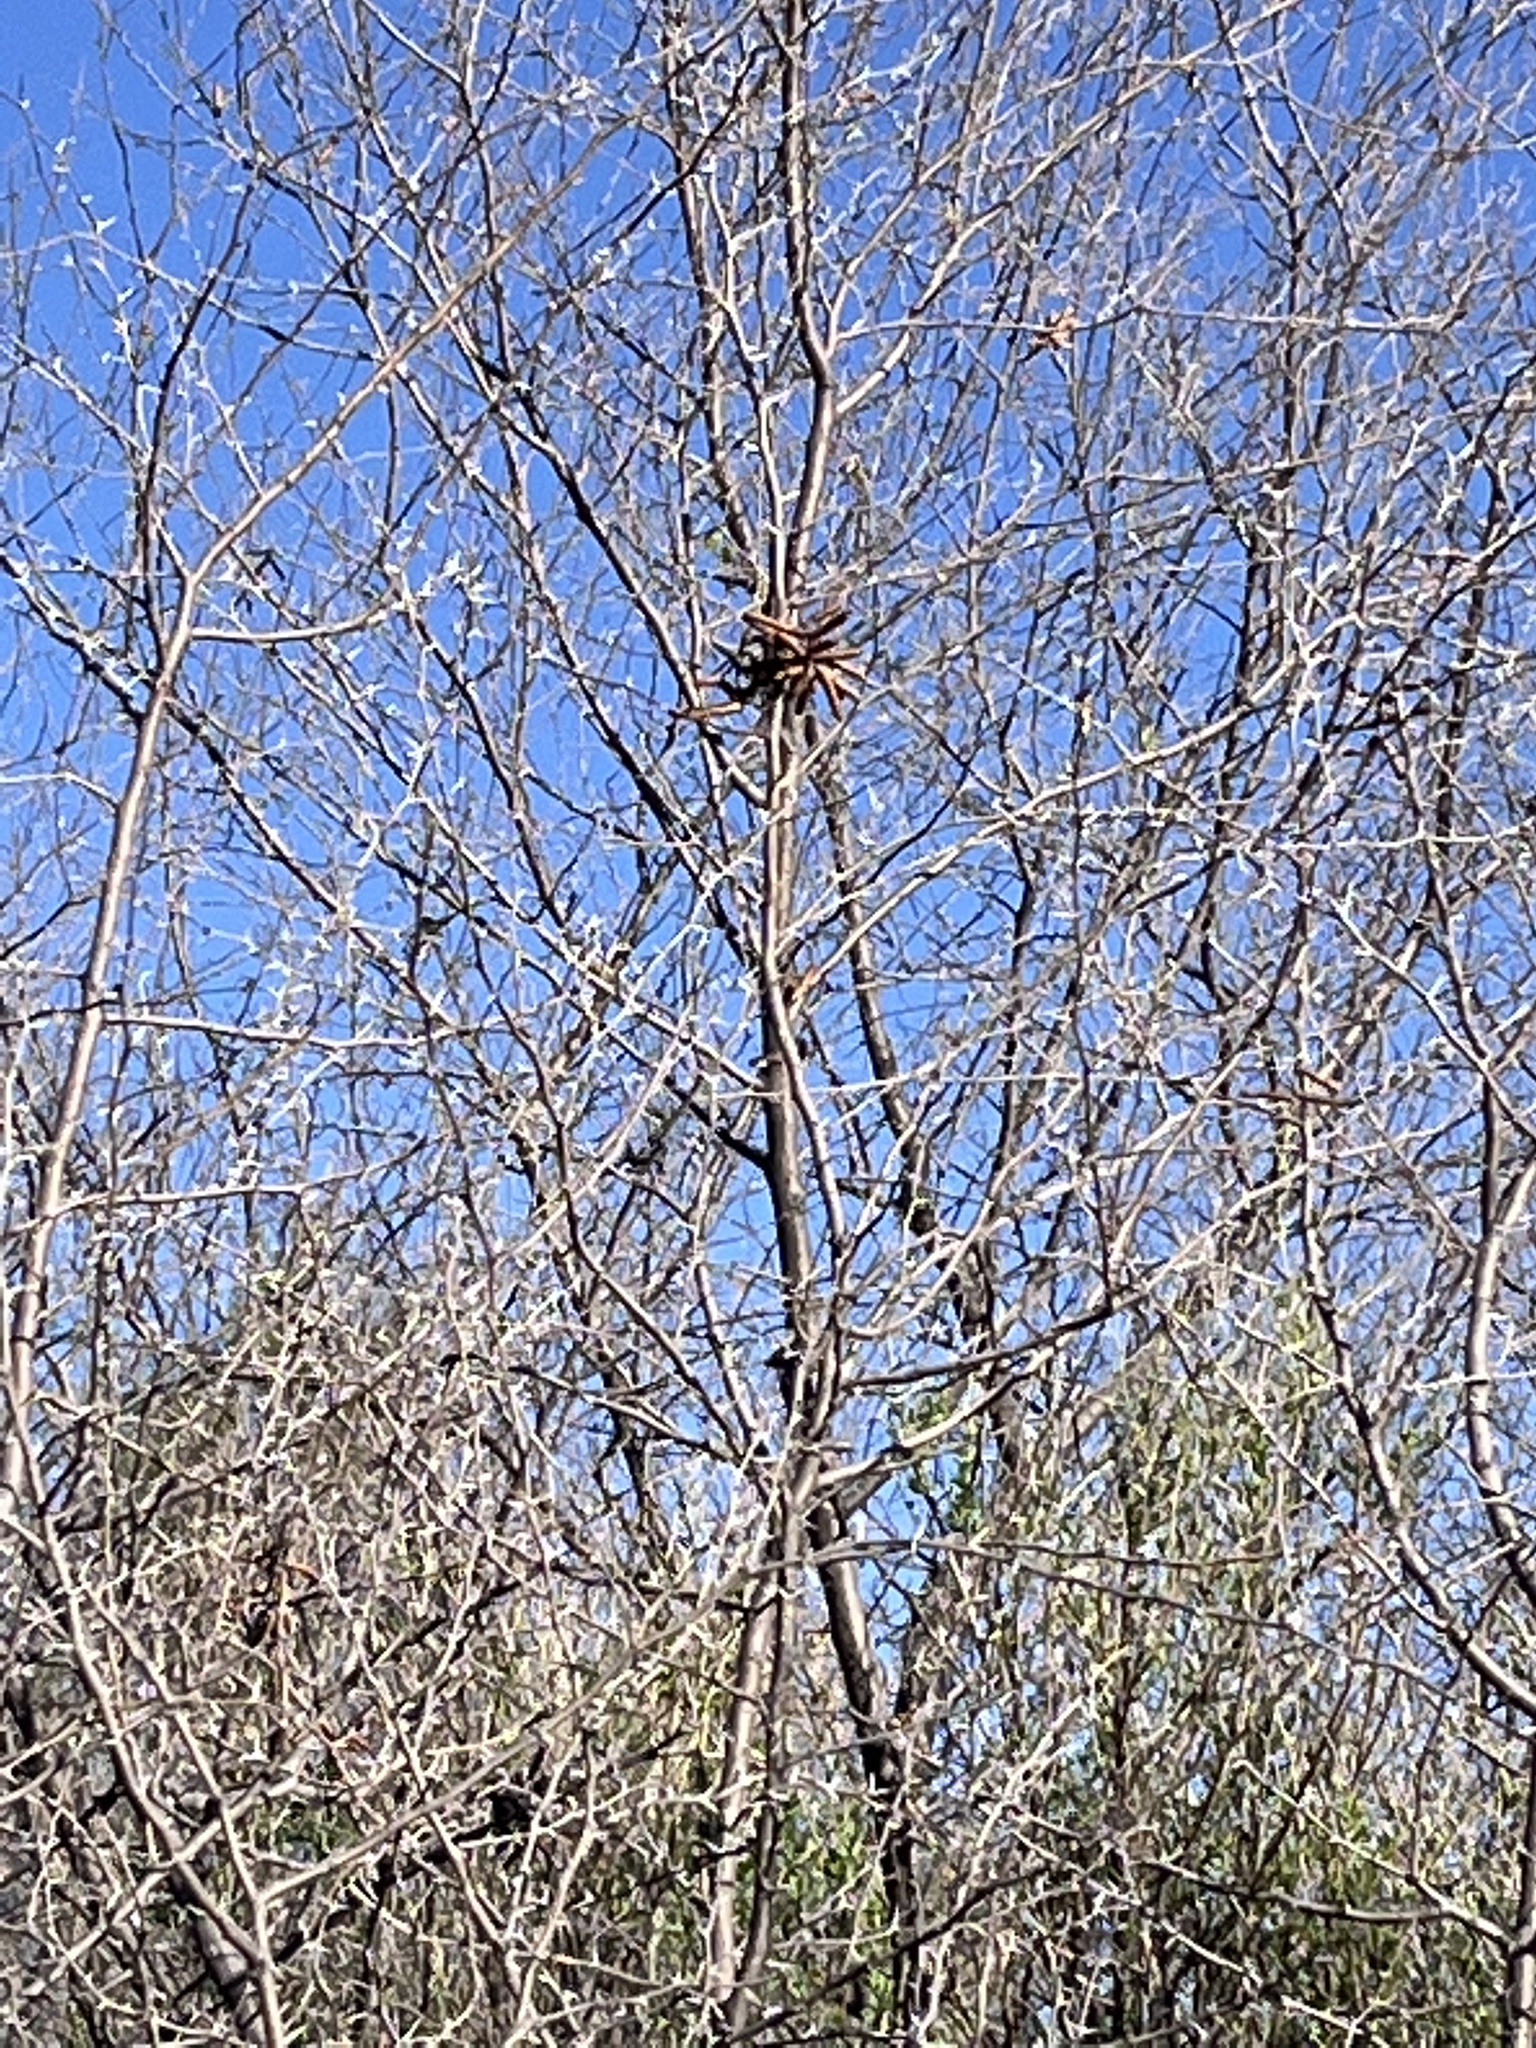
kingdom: Plantae
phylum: Tracheophyta
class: Magnoliopsida
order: Fabales
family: Fabaceae
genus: Prosopis
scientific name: Prosopis pubescens
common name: Screw-bean
